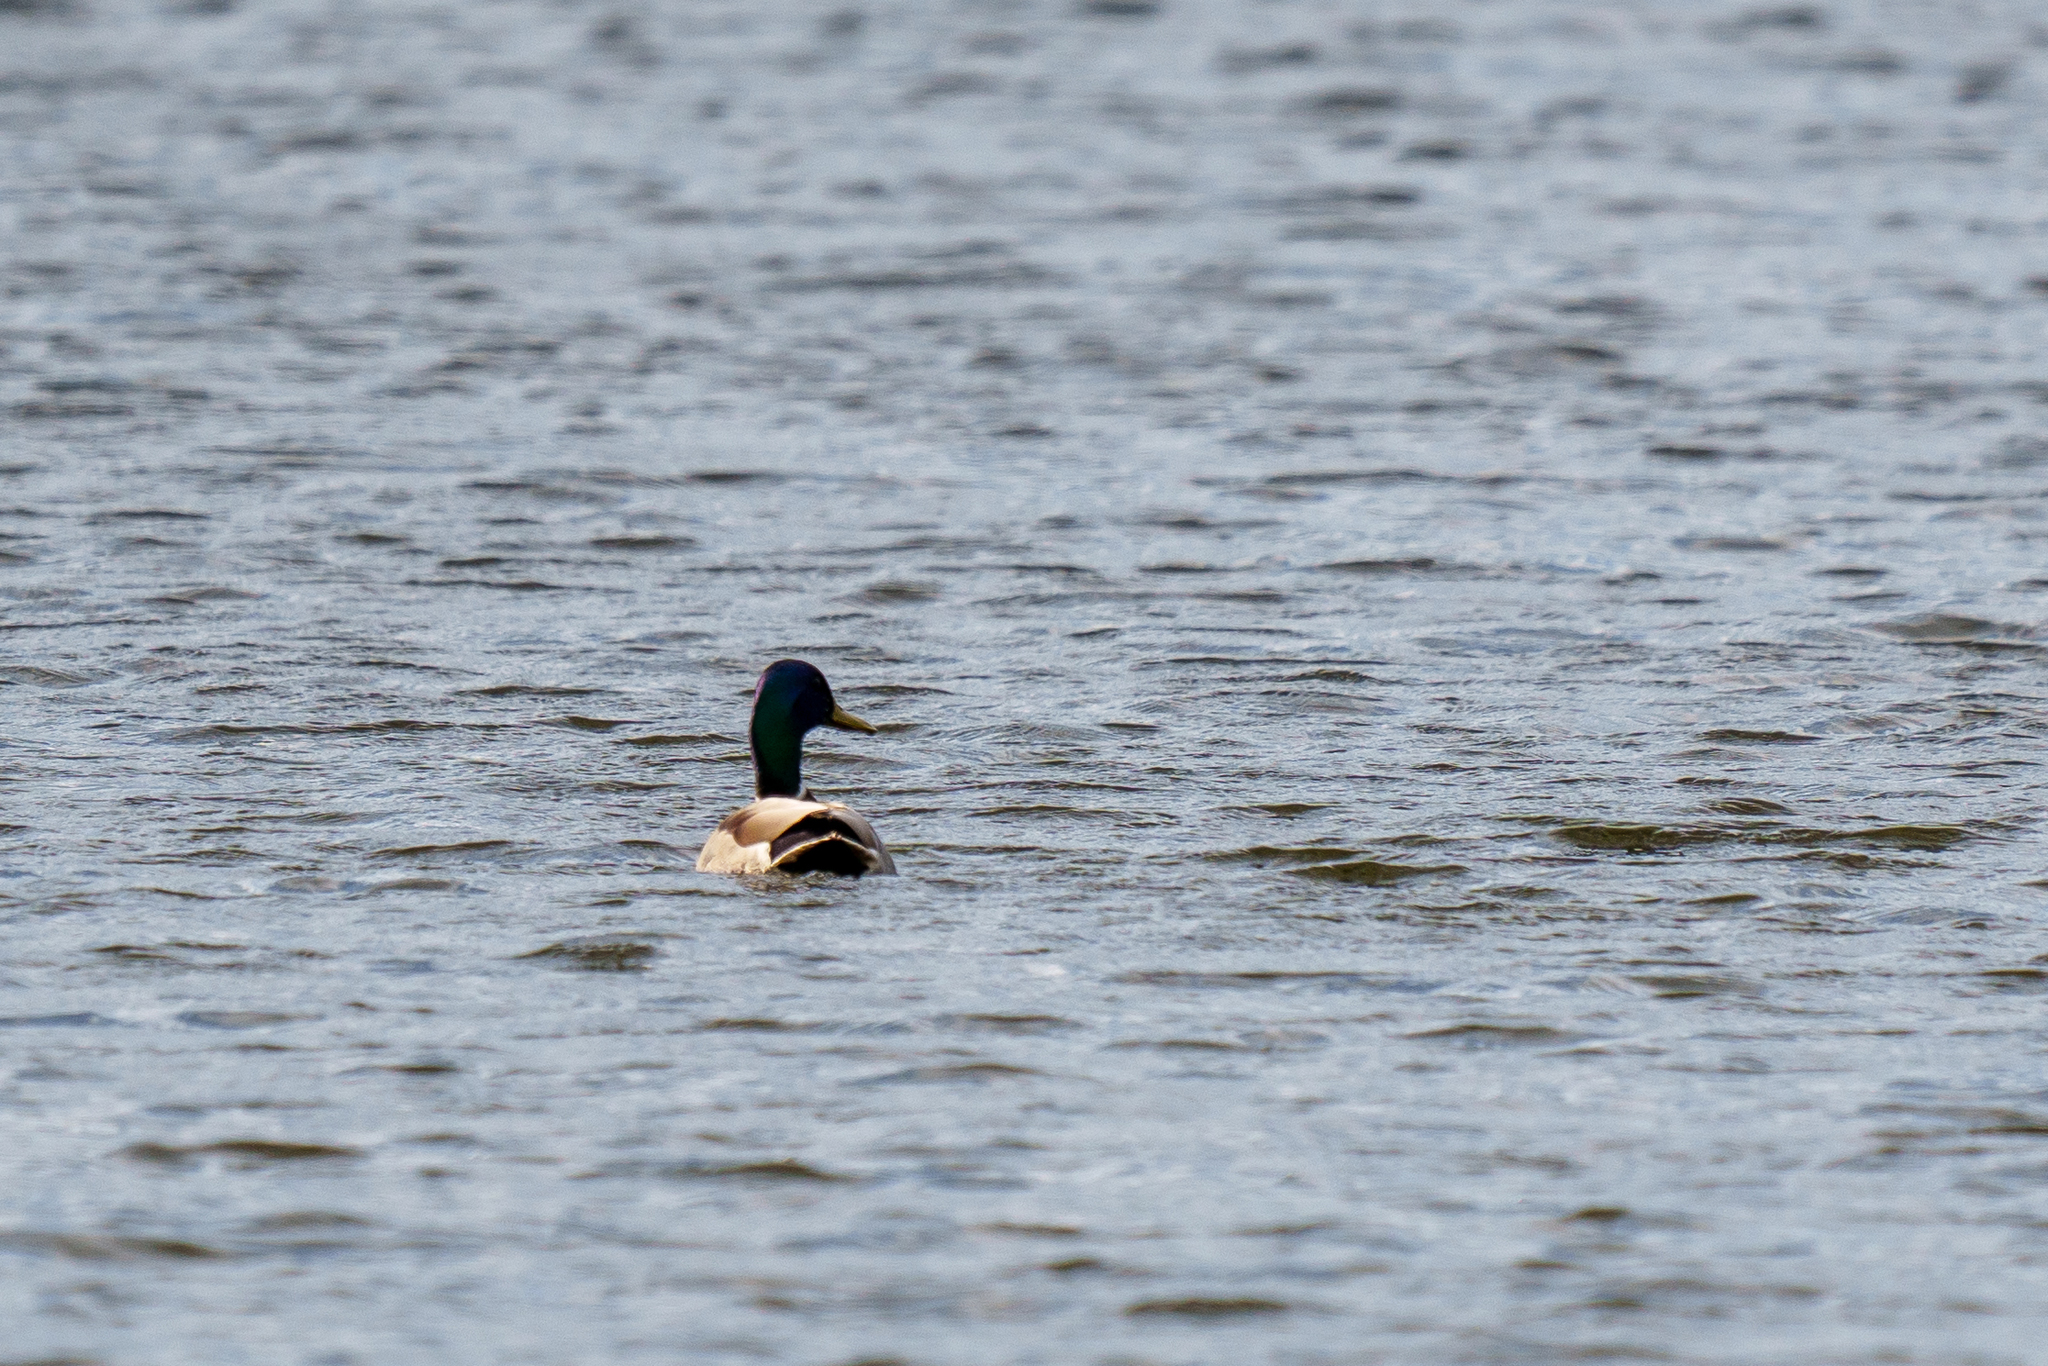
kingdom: Animalia
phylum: Chordata
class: Aves
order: Anseriformes
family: Anatidae
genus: Anas
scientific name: Anas platyrhynchos
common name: Mallard
